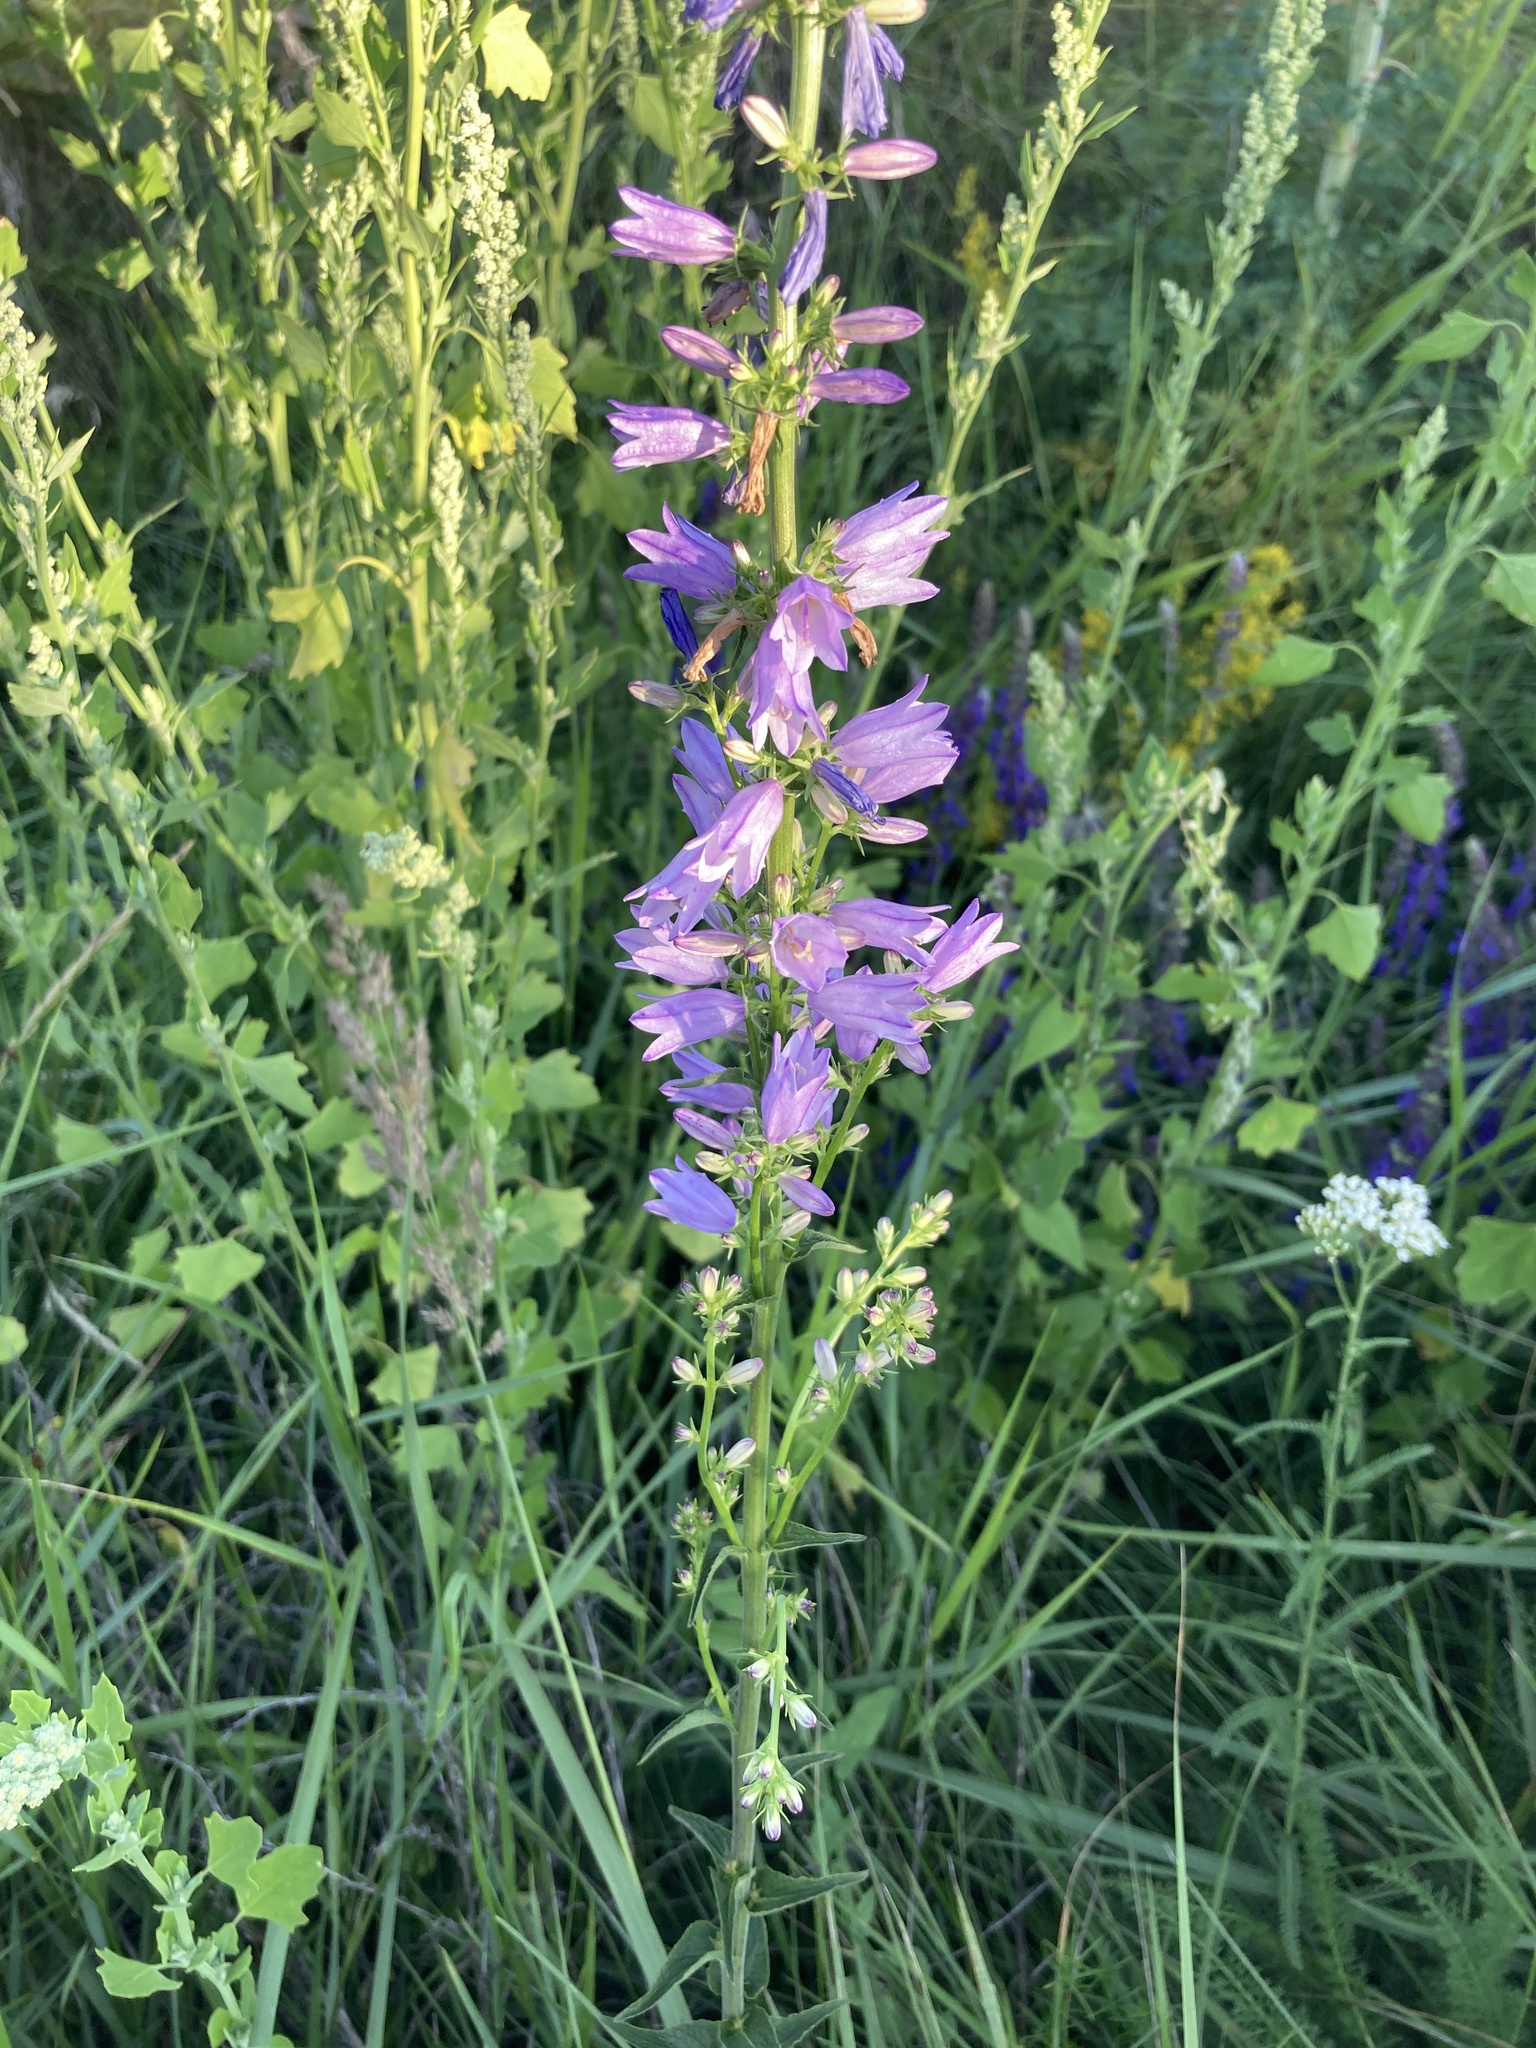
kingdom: Plantae
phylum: Tracheophyta
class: Magnoliopsida
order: Asterales
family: Campanulaceae
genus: Campanula
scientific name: Campanula bononiensis
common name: Pale bellflower
